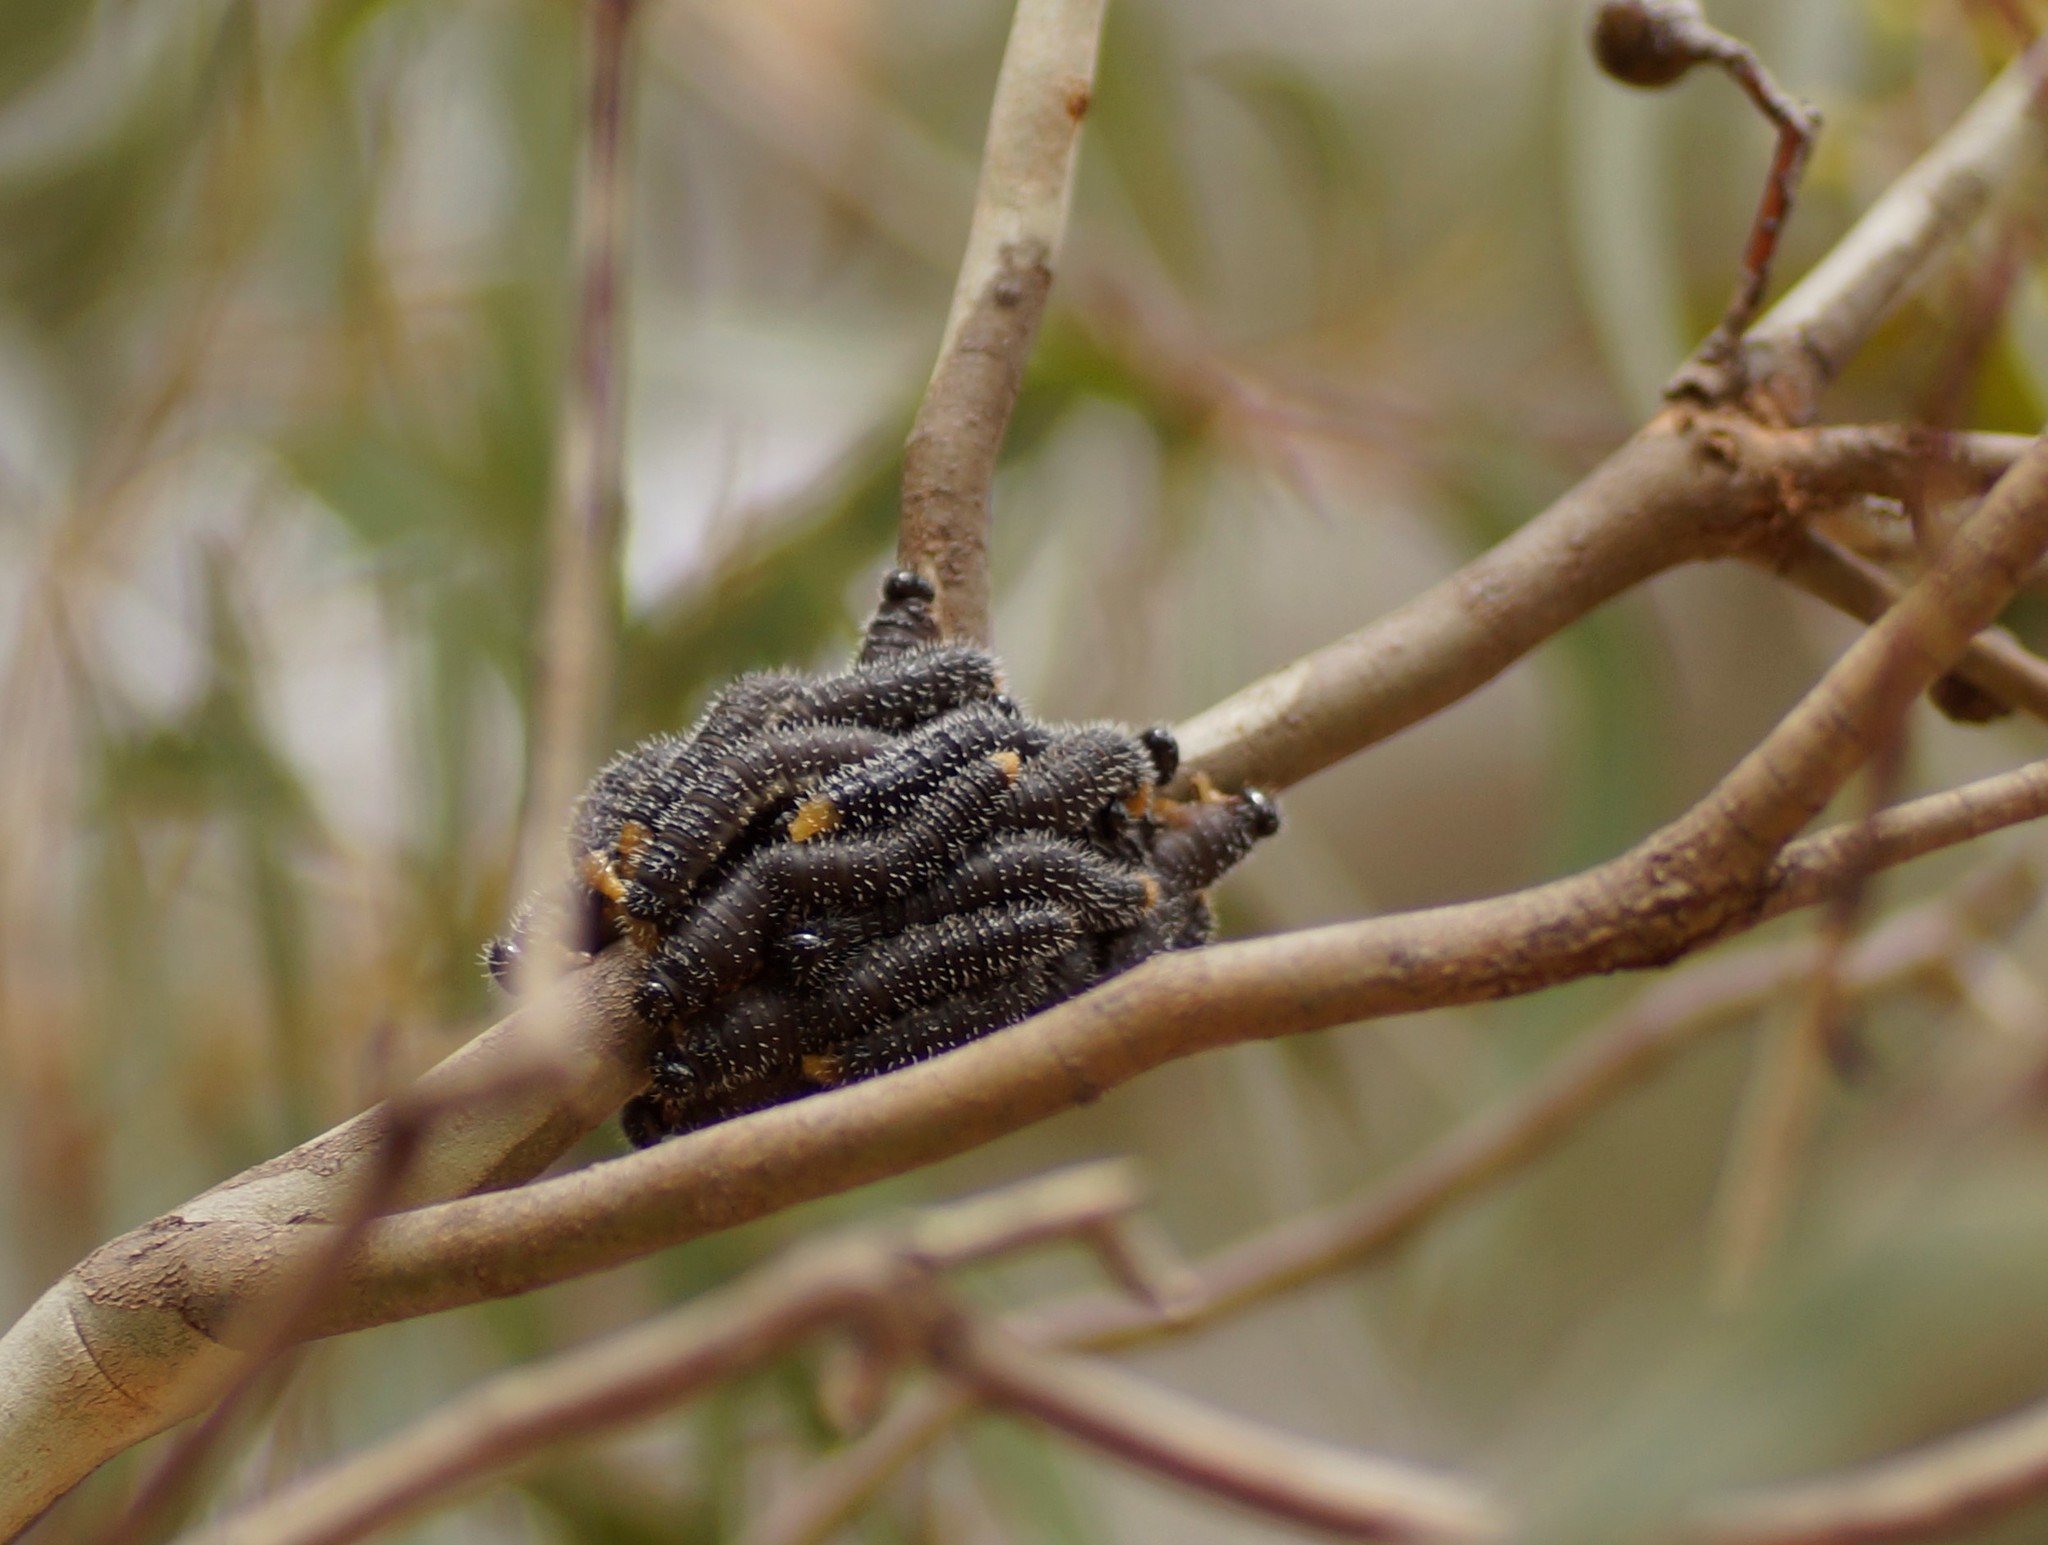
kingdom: Animalia
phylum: Arthropoda
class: Insecta
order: Hymenoptera
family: Pergidae
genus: Perga
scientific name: Perga affinis
